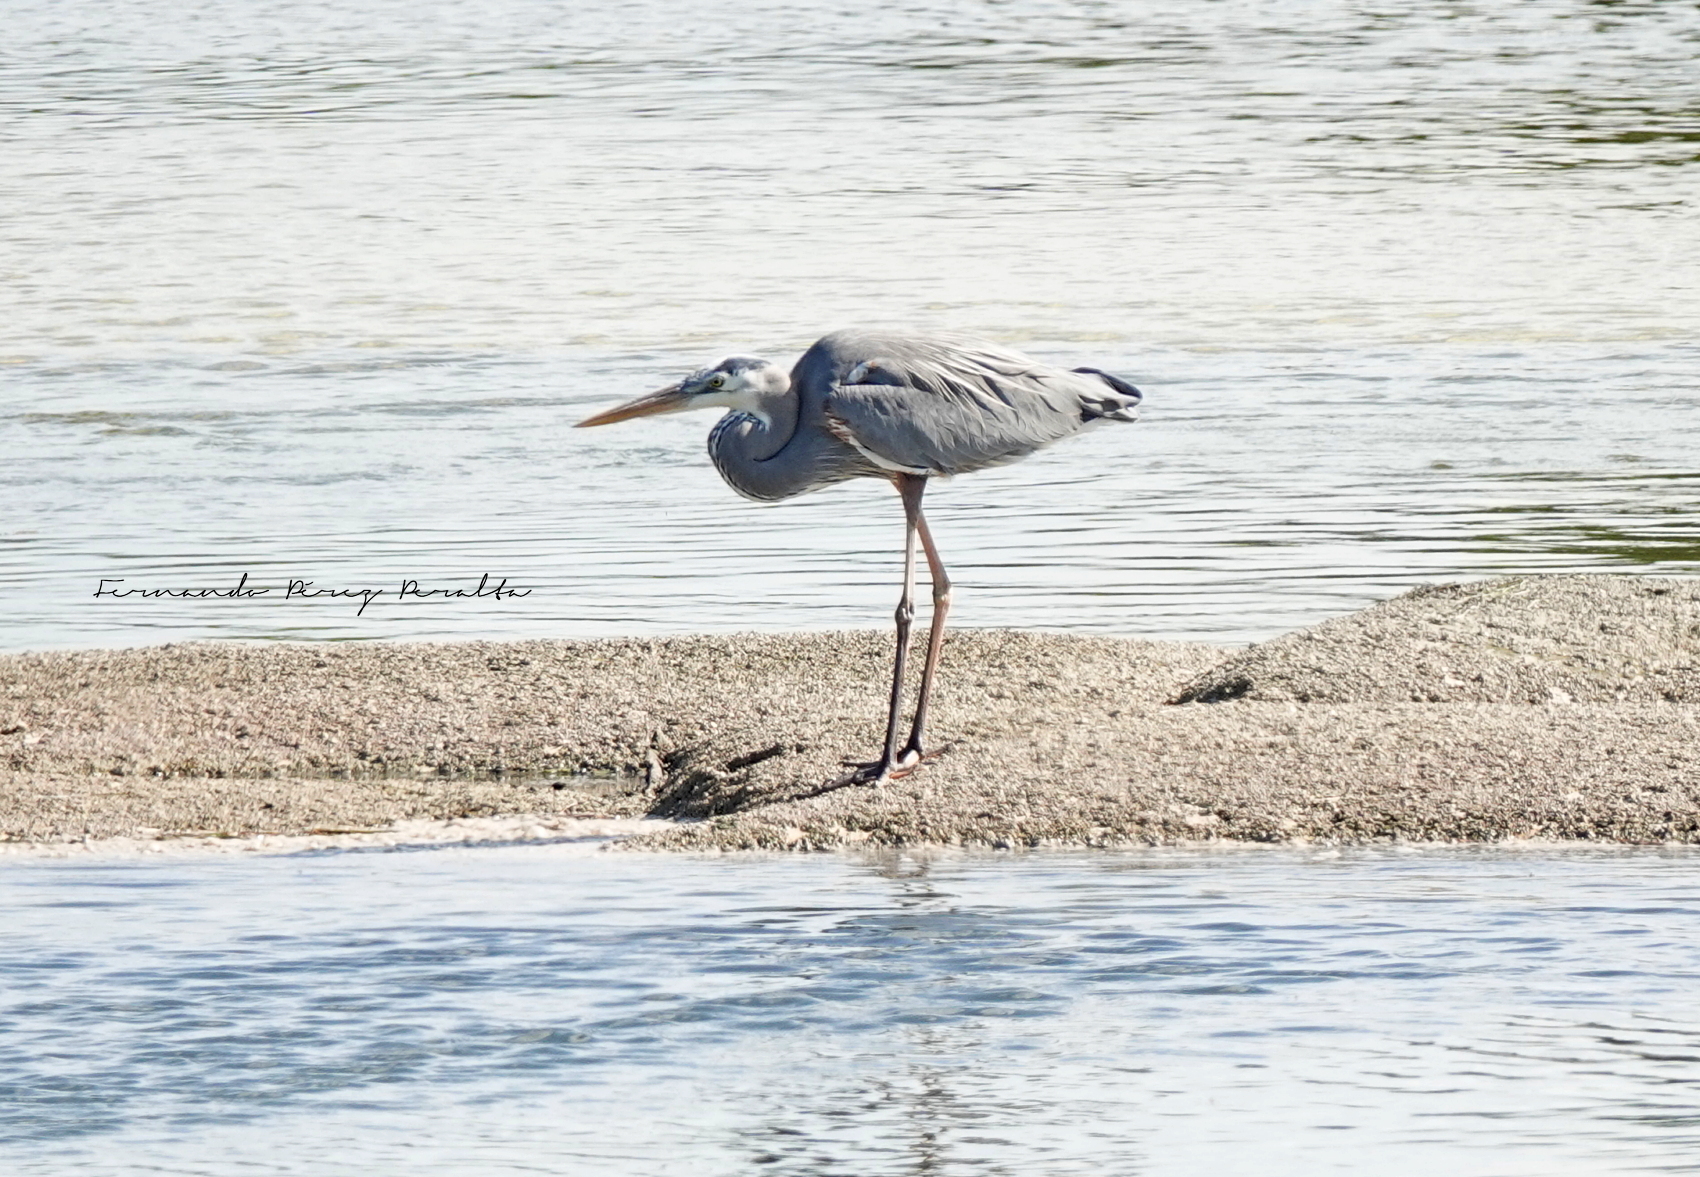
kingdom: Animalia
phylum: Chordata
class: Aves
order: Pelecaniformes
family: Ardeidae
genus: Ardea
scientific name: Ardea herodias
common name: Great blue heron
